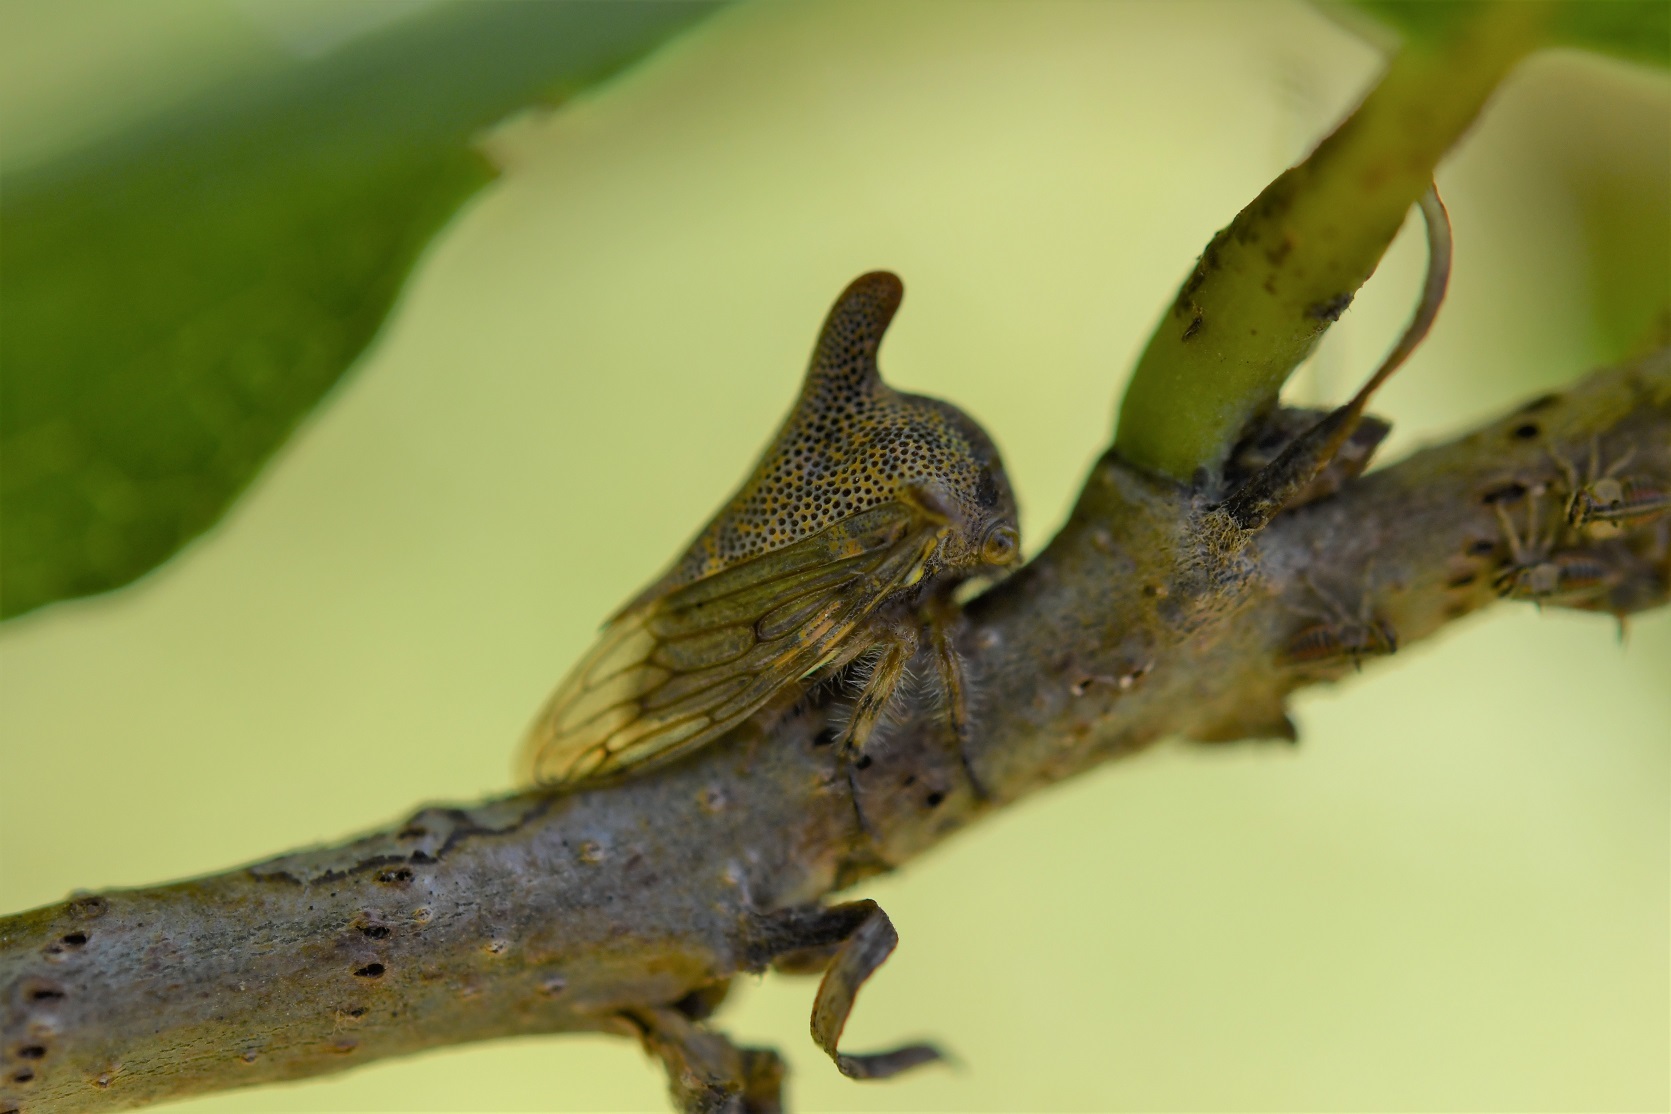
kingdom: Animalia
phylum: Arthropoda
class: Insecta
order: Hemiptera
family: Membracidae
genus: Platycotis
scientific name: Platycotis tuberculata
